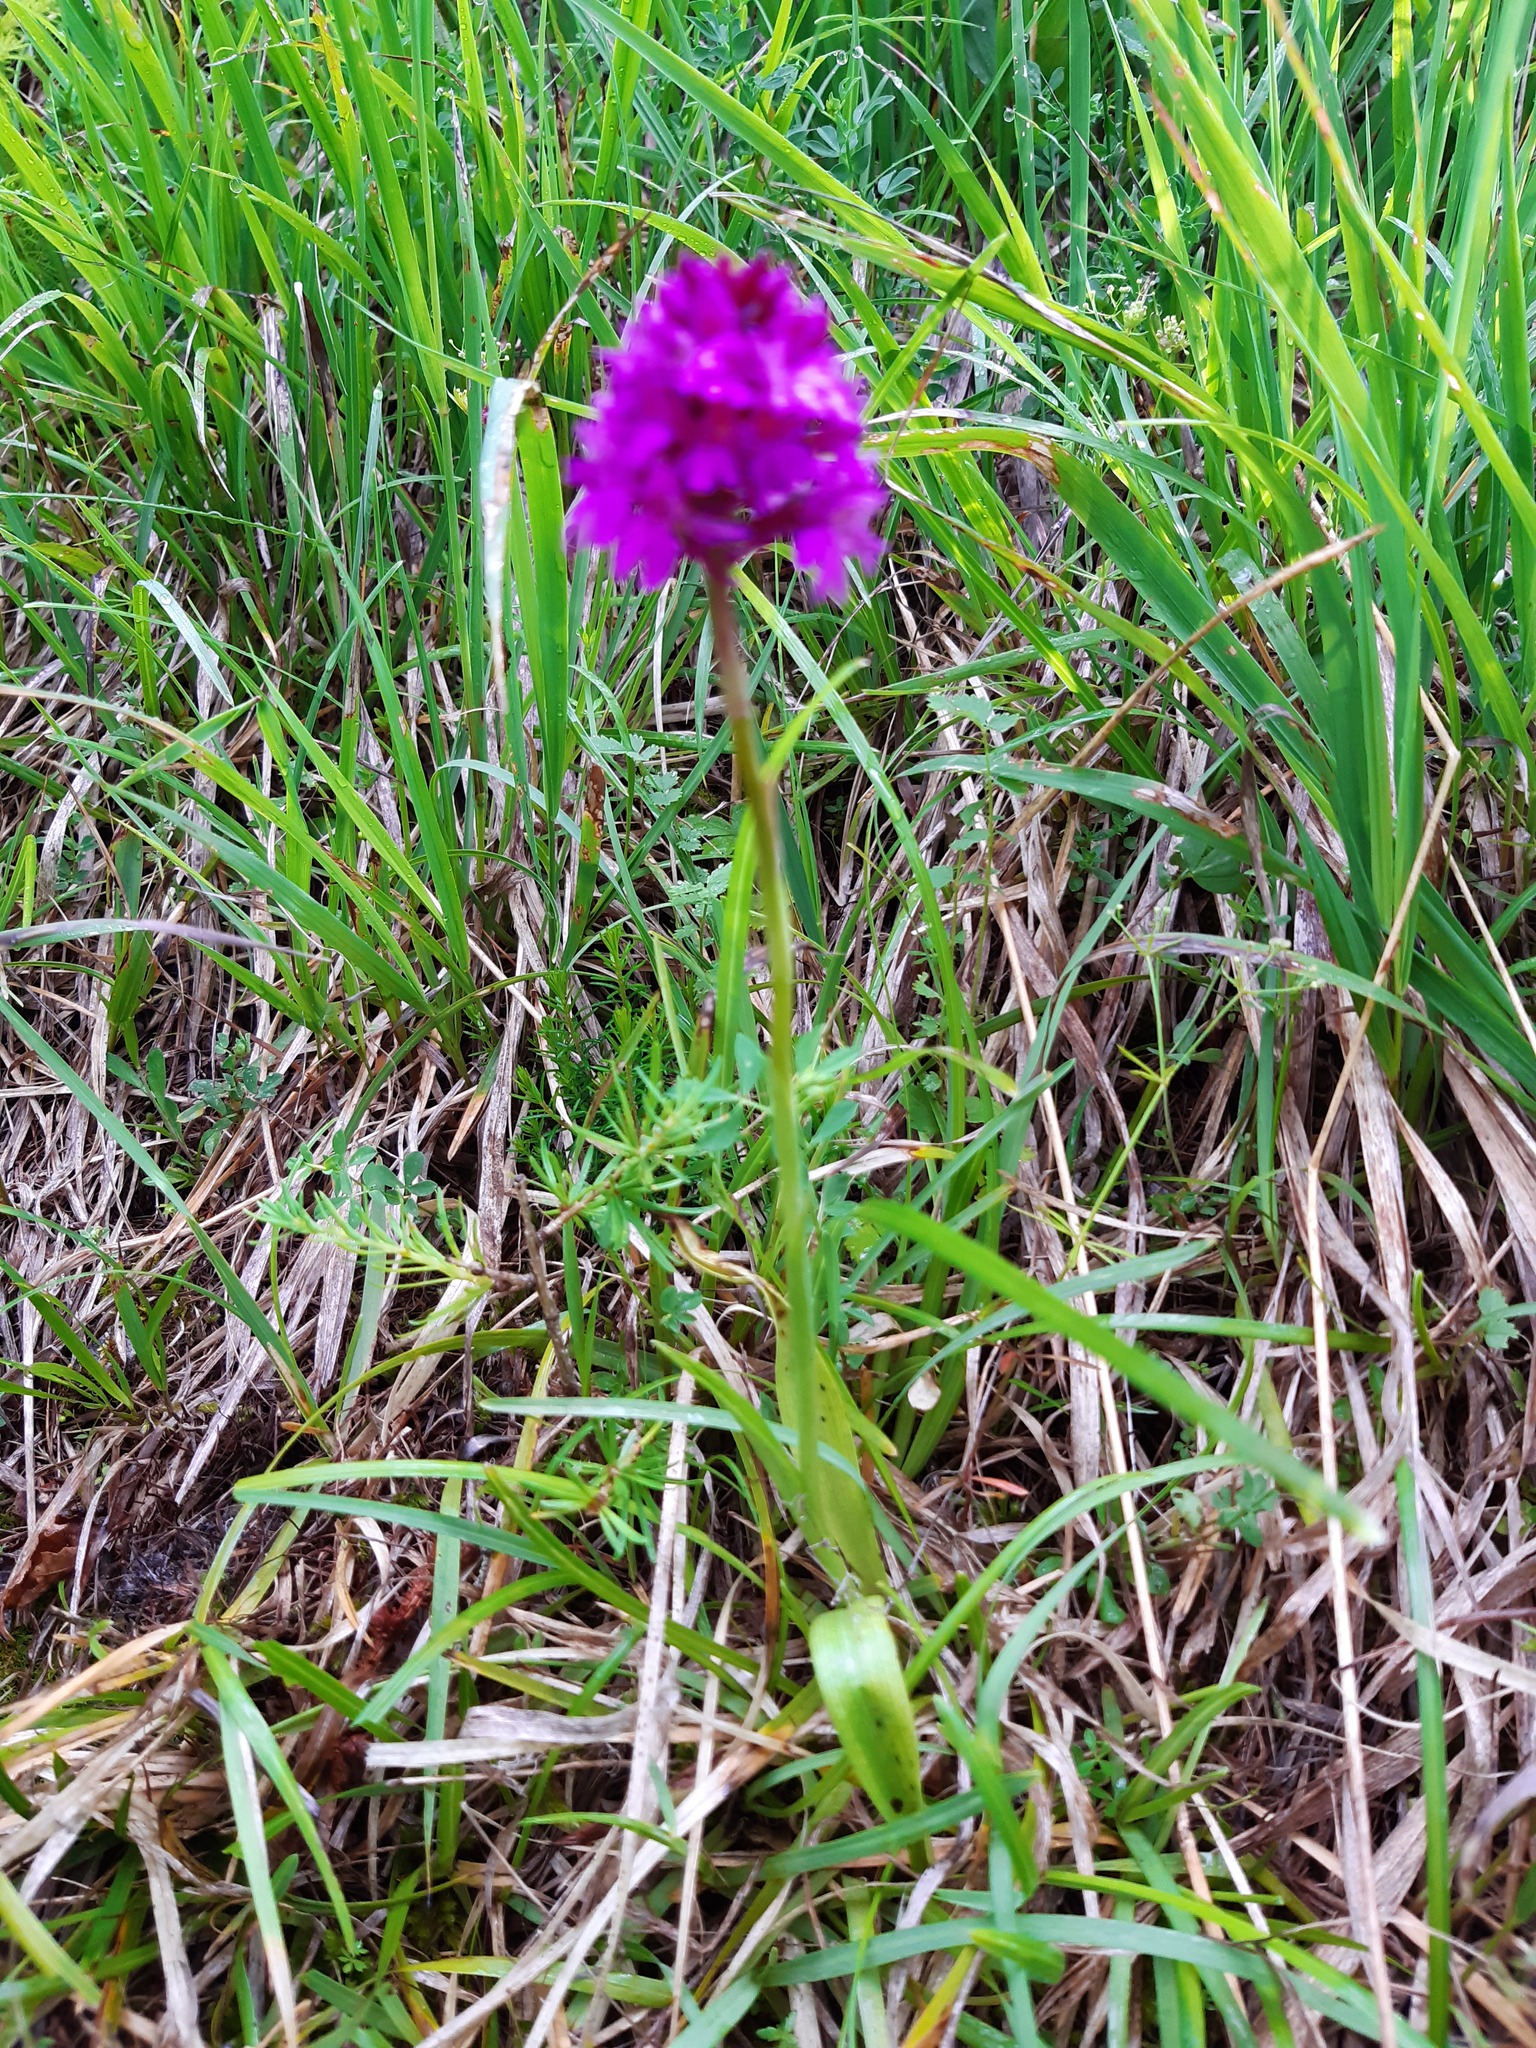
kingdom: Plantae
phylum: Tracheophyta
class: Liliopsida
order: Asparagales
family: Orchidaceae
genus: Anacamptis
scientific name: Anacamptis pyramidalis
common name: Pyramidal orchid
